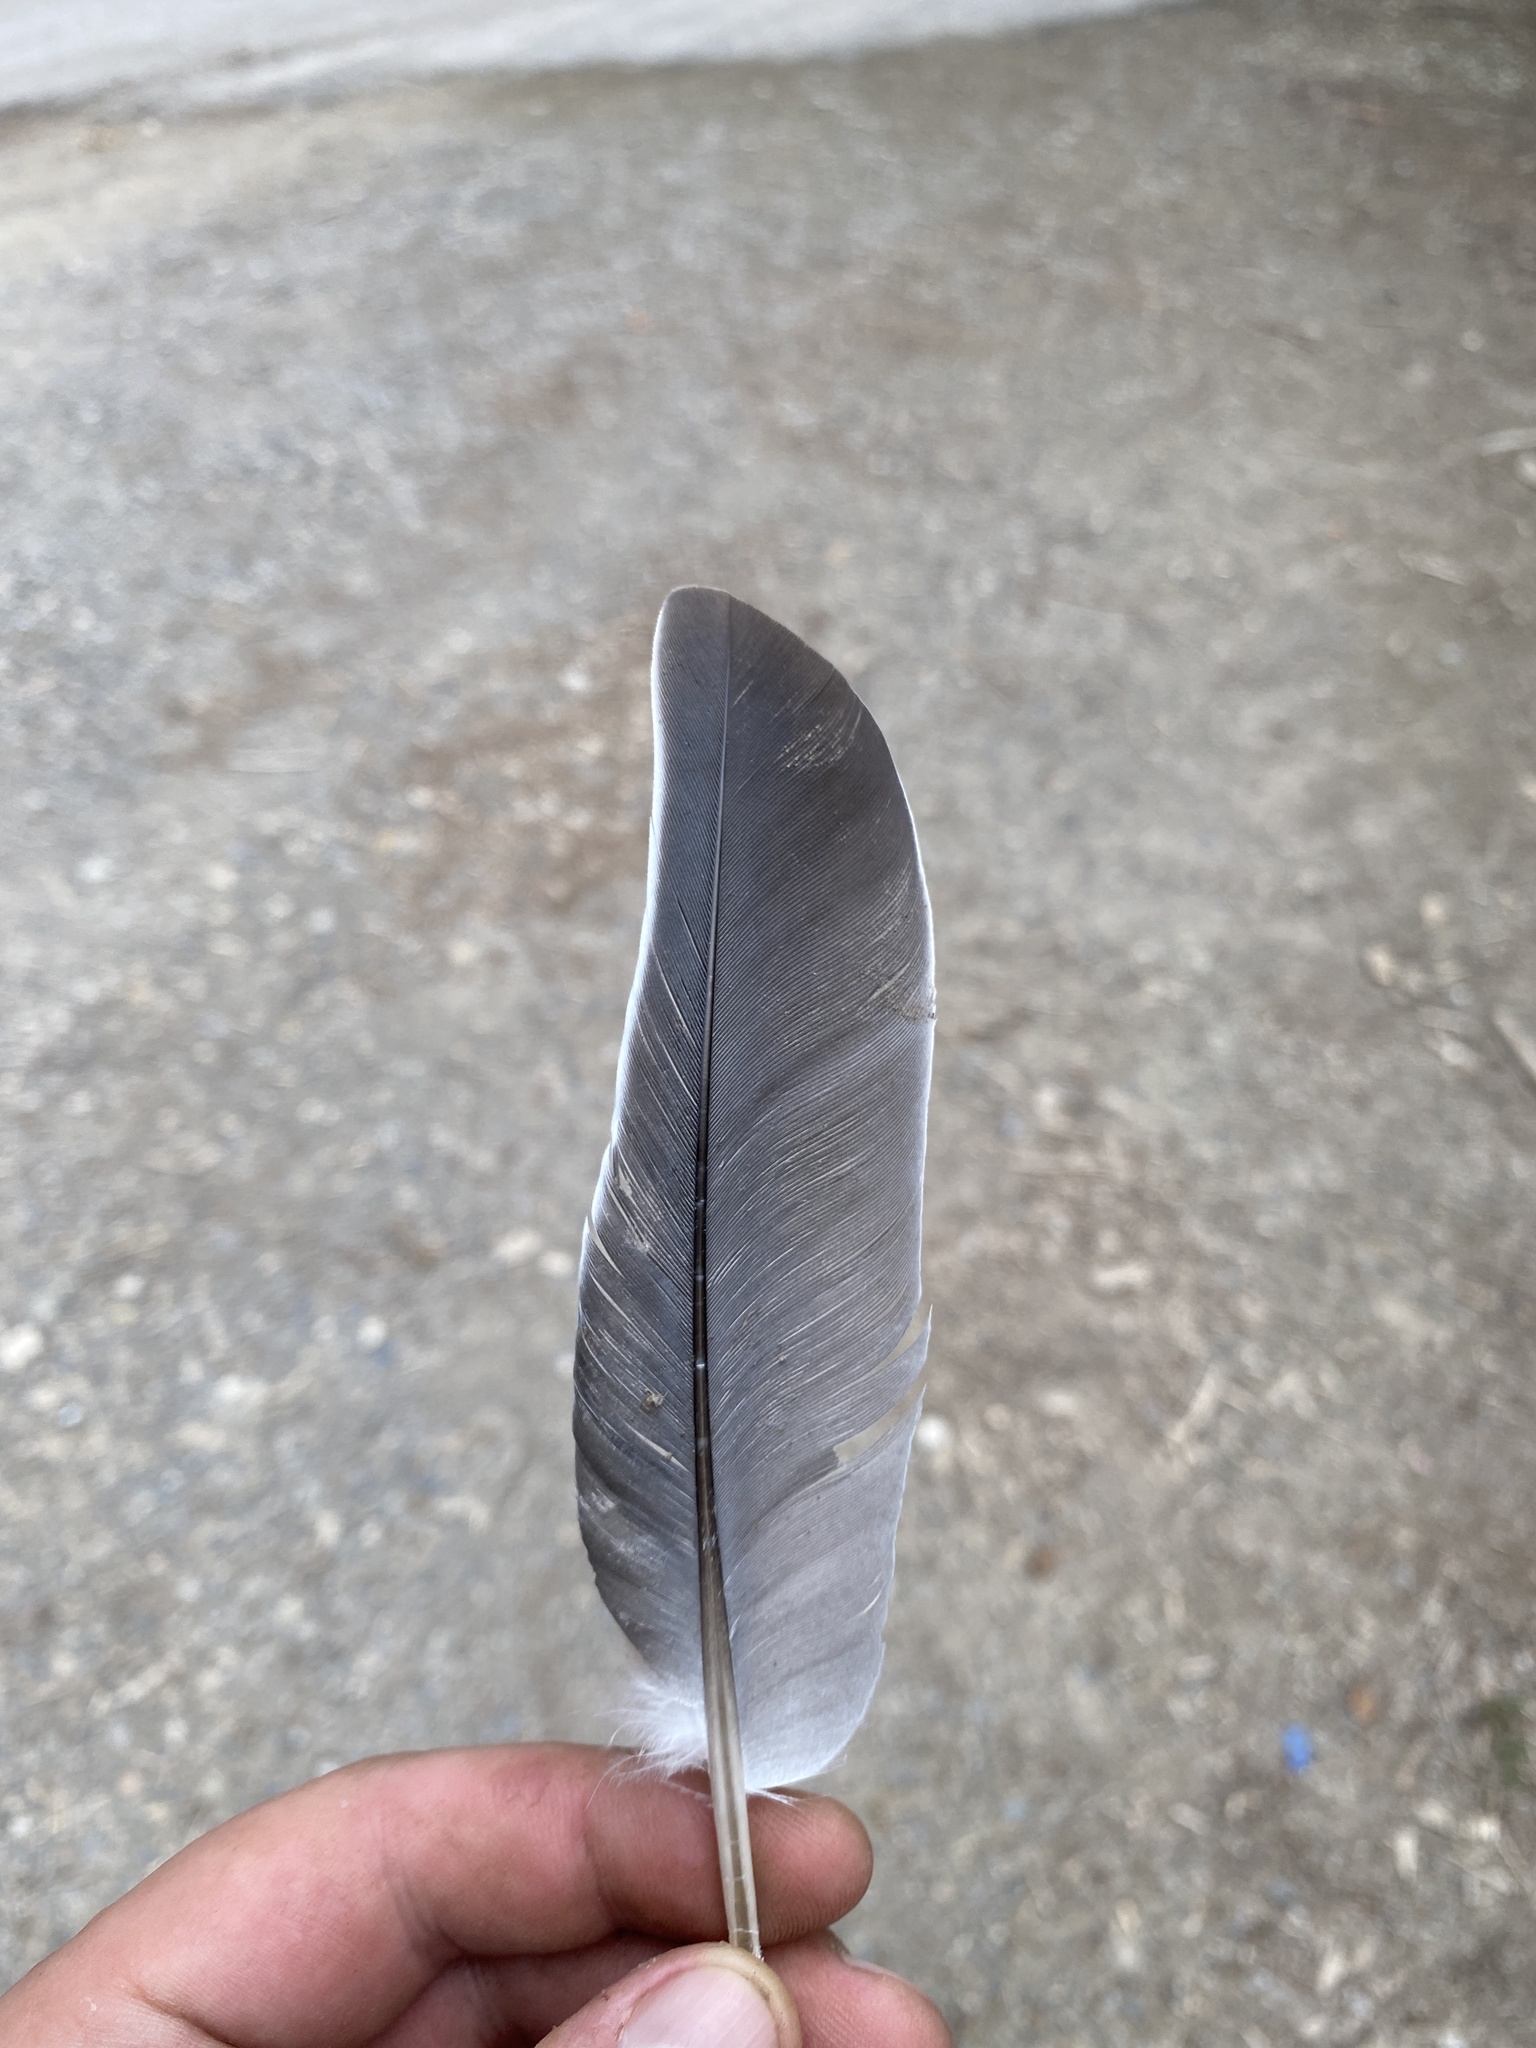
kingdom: Animalia
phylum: Chordata
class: Aves
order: Columbiformes
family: Columbidae
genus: Columba
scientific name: Columba palumbus
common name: Common wood pigeon
